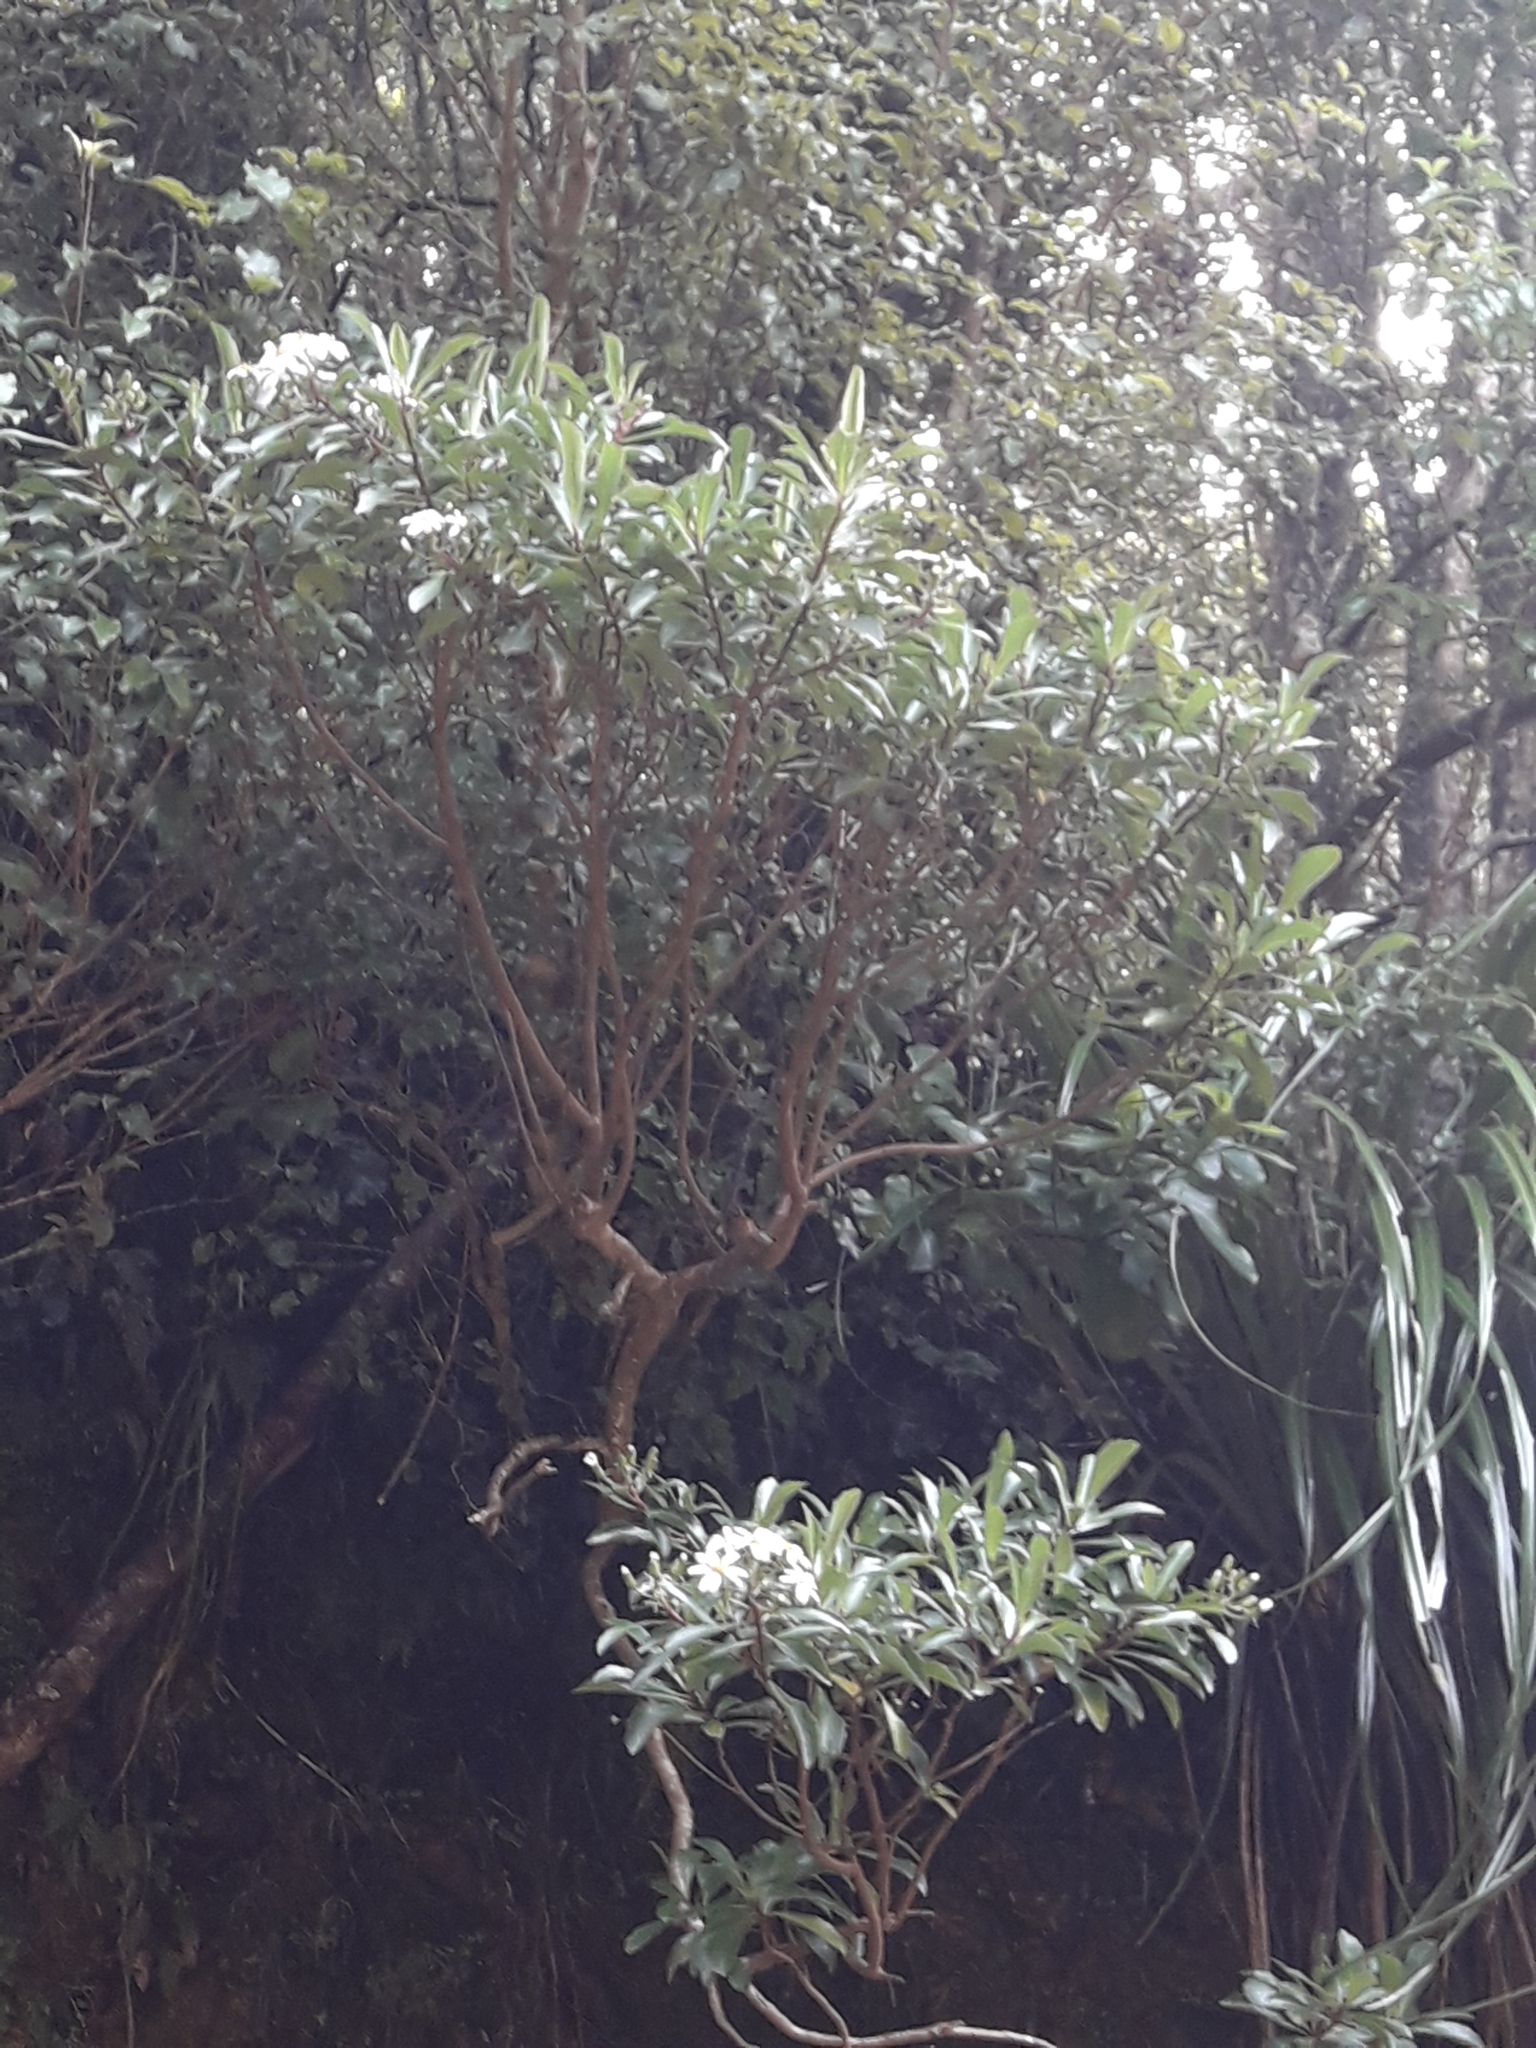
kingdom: Plantae
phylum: Tracheophyta
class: Magnoliopsida
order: Asterales
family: Asteraceae
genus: Brachyglottis
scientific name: Brachyglottis kirkii
